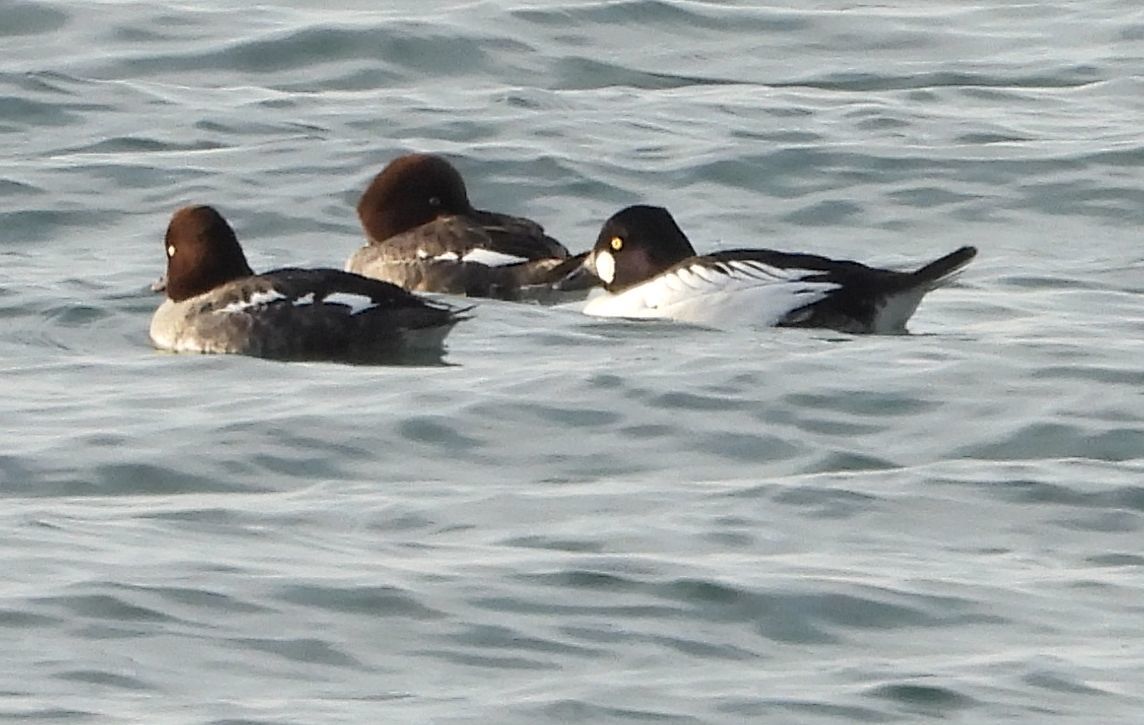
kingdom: Animalia
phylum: Chordata
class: Aves
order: Anseriformes
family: Anatidae
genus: Bucephala
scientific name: Bucephala clangula
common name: Common goldeneye
